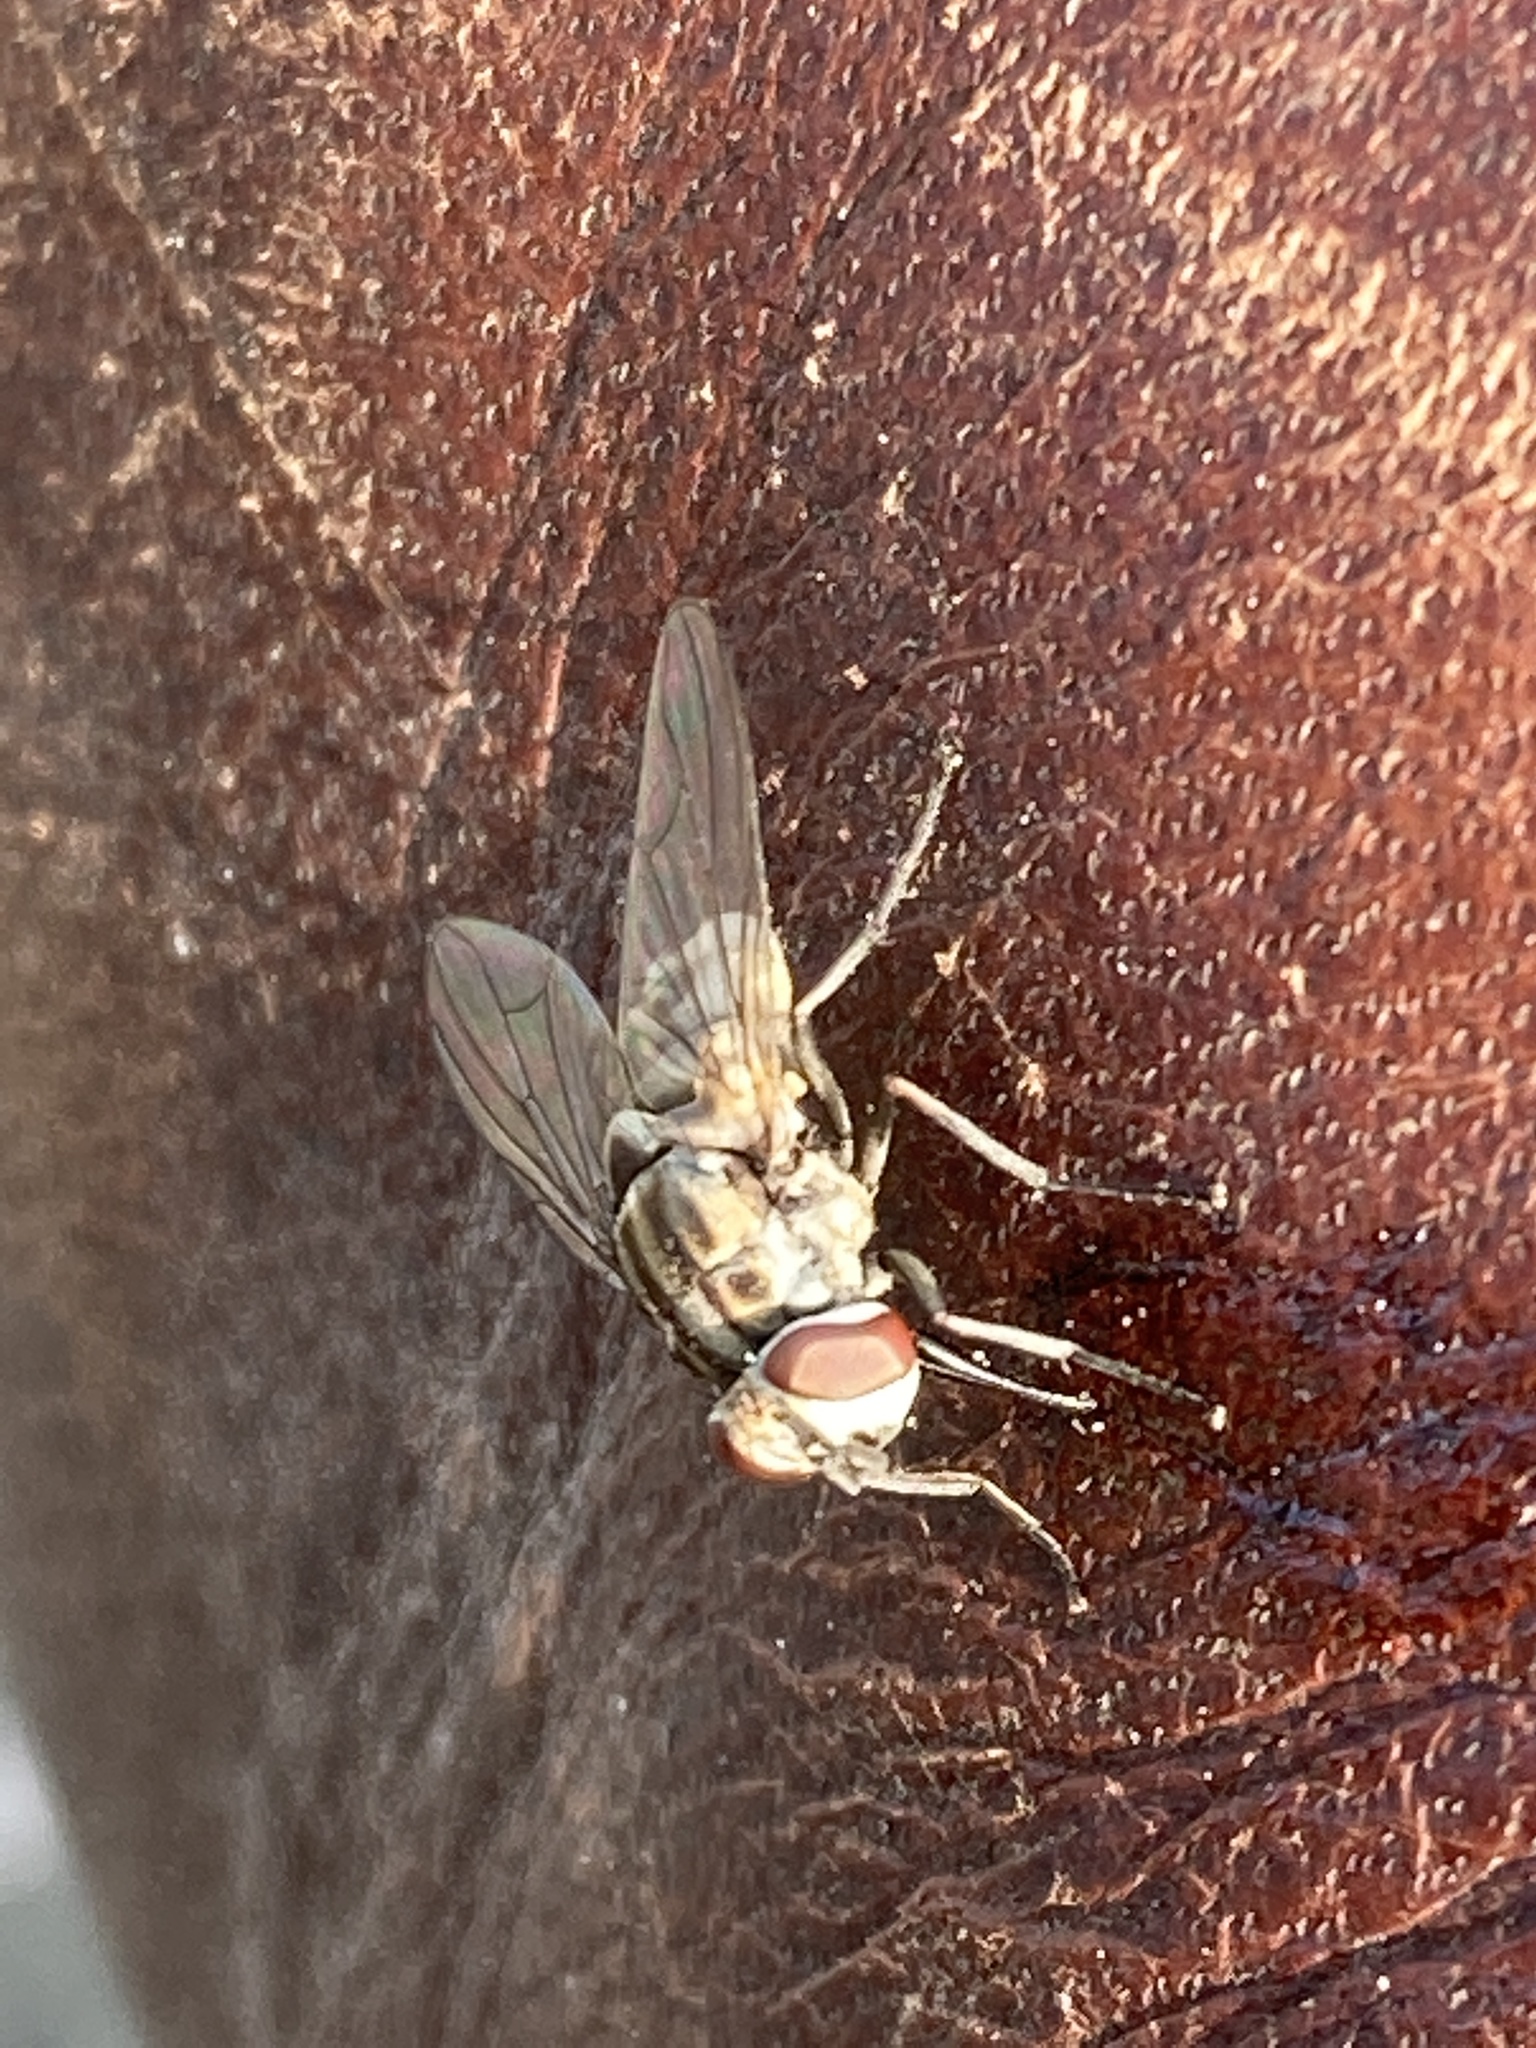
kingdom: Animalia
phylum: Arthropoda
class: Insecta
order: Diptera
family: Muscidae
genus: Stomoxys
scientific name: Stomoxys calcitrans
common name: Stable fly
